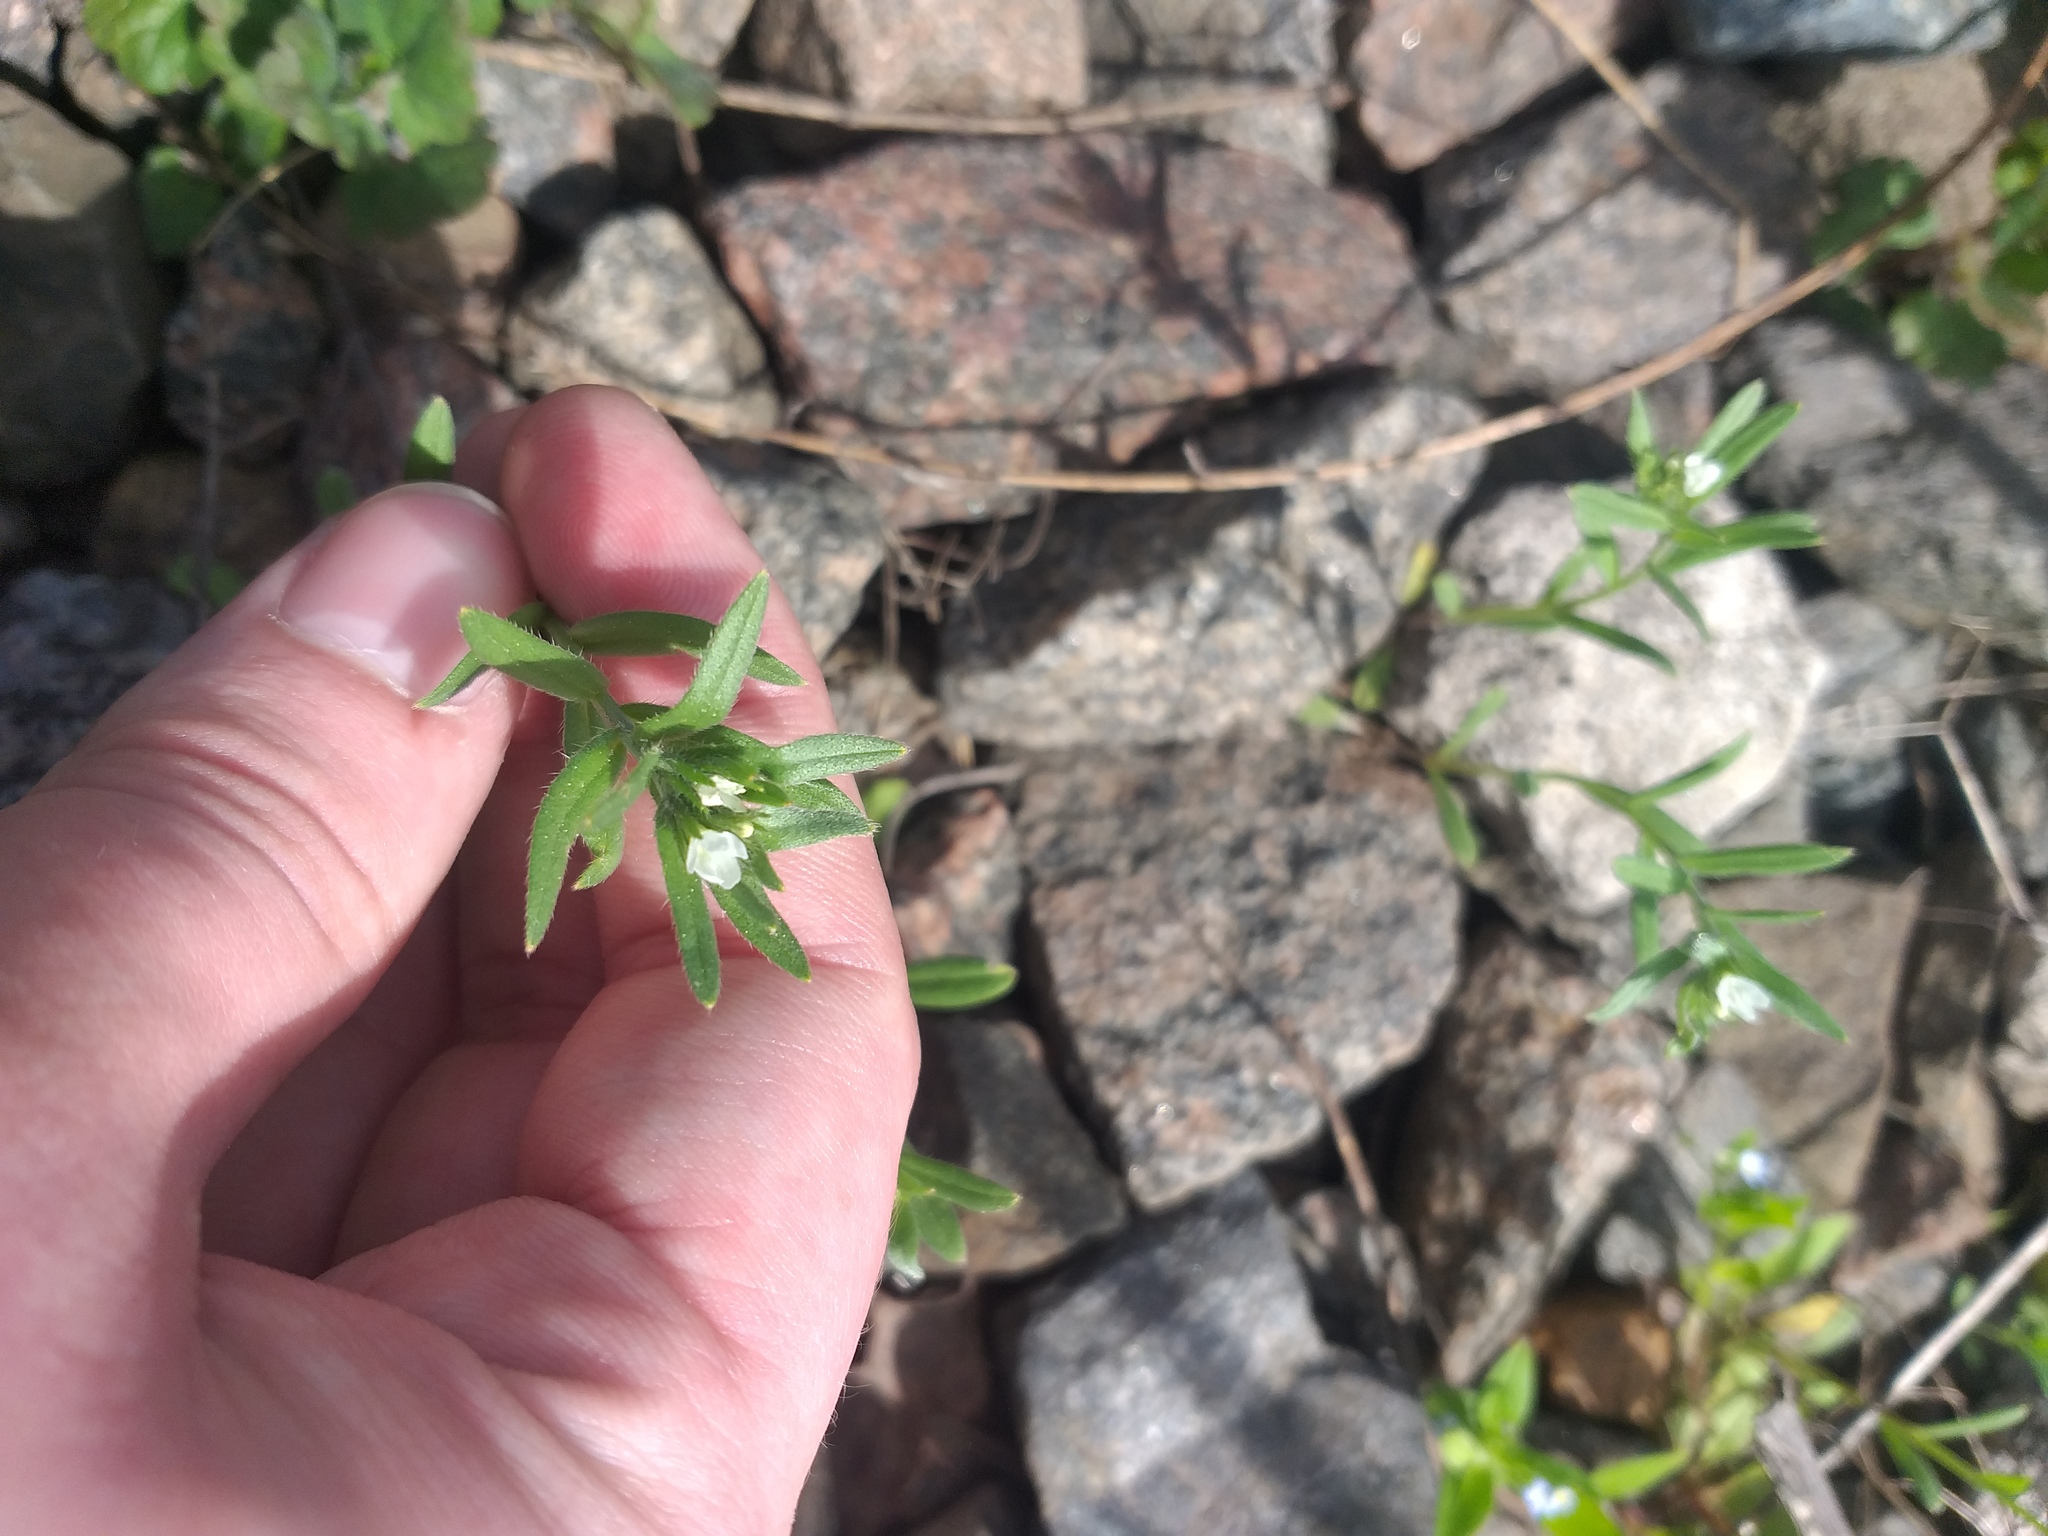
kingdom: Plantae
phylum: Tracheophyta
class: Magnoliopsida
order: Boraginales
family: Boraginaceae
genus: Buglossoides
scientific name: Buglossoides arvensis
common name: Corn gromwell
